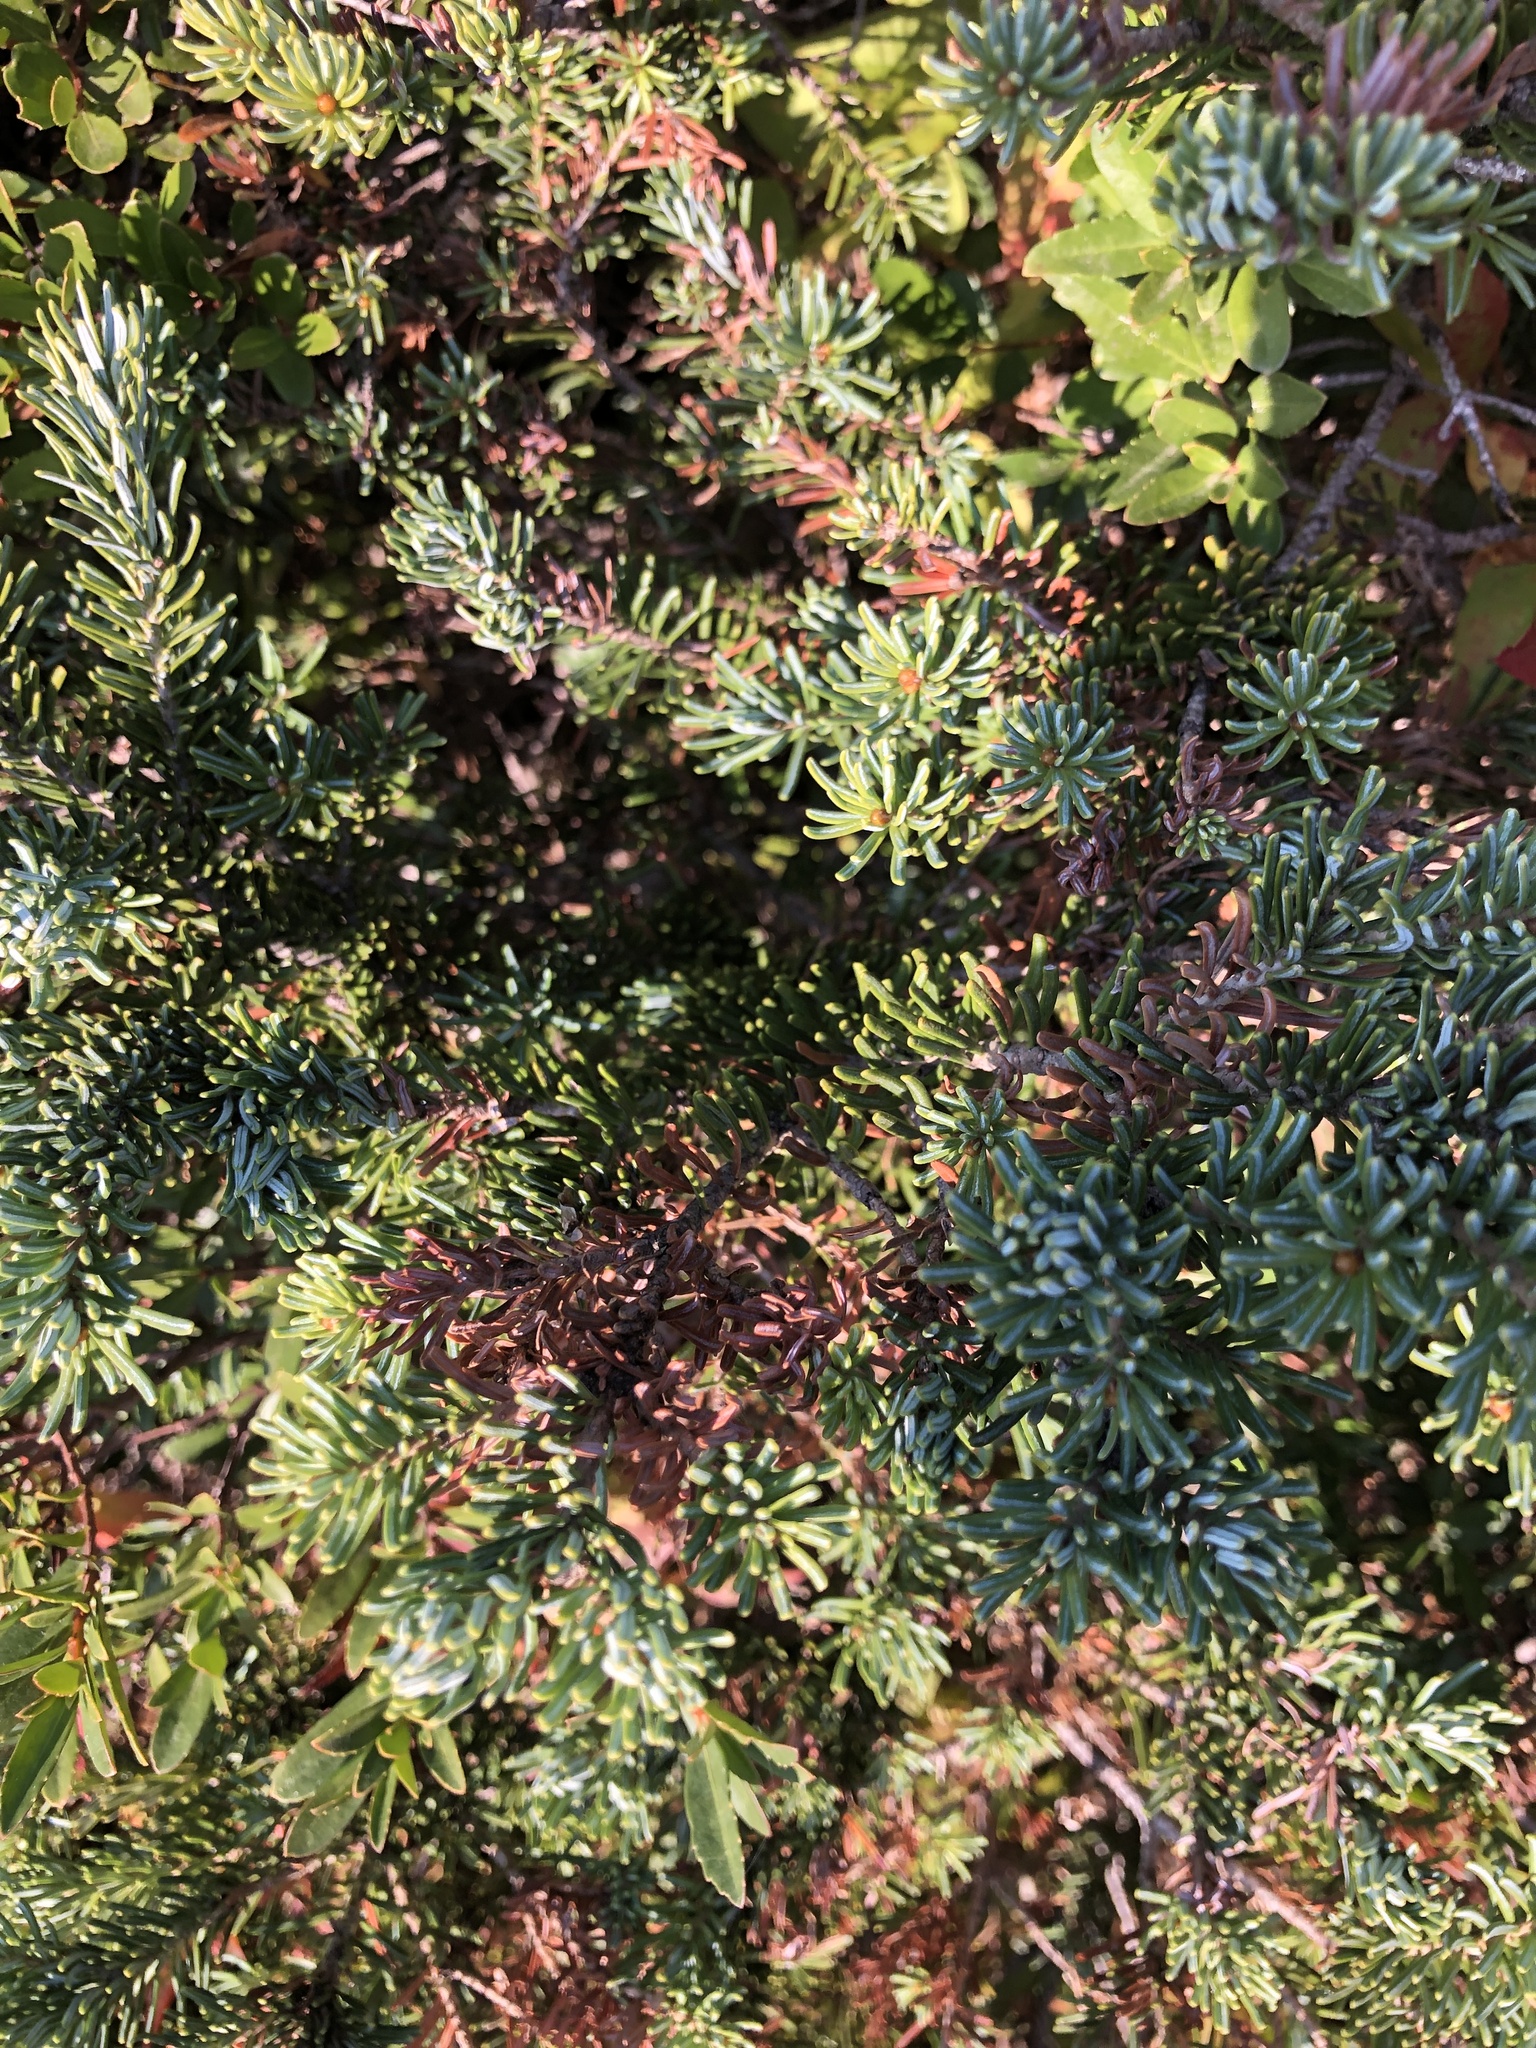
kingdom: Plantae
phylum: Tracheophyta
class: Pinopsida
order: Pinales
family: Pinaceae
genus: Abies
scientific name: Abies lasiocarpa
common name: Subalpine fir
